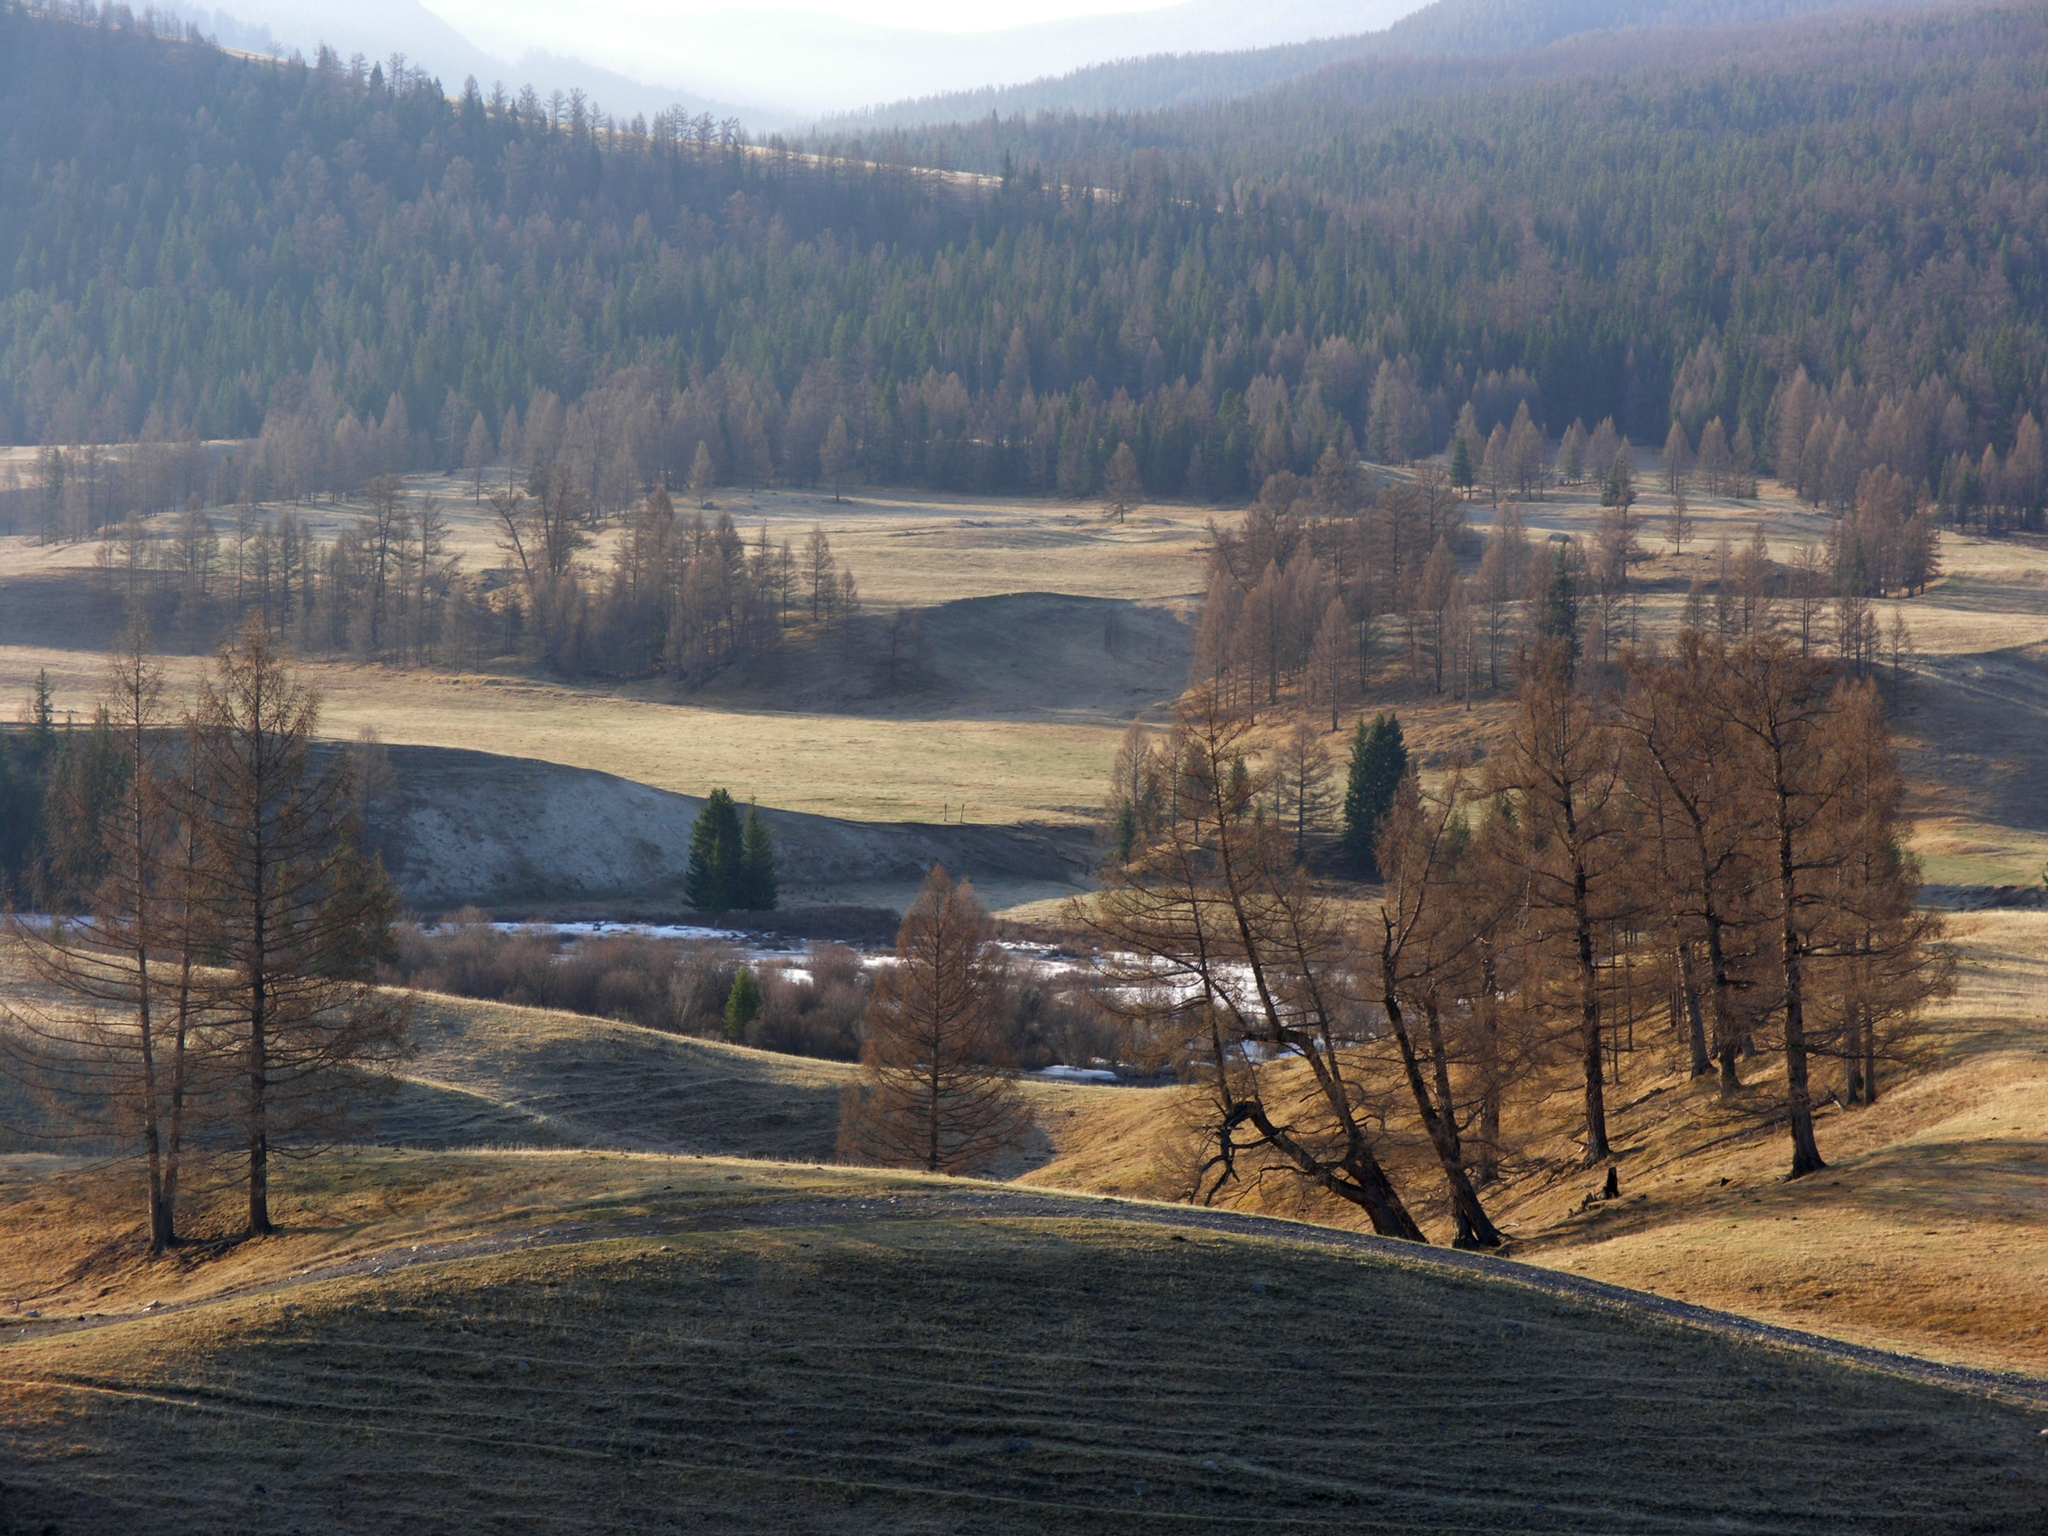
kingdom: Plantae
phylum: Tracheophyta
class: Pinopsida
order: Pinales
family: Pinaceae
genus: Larix
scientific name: Larix sibirica
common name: Siberian larch
